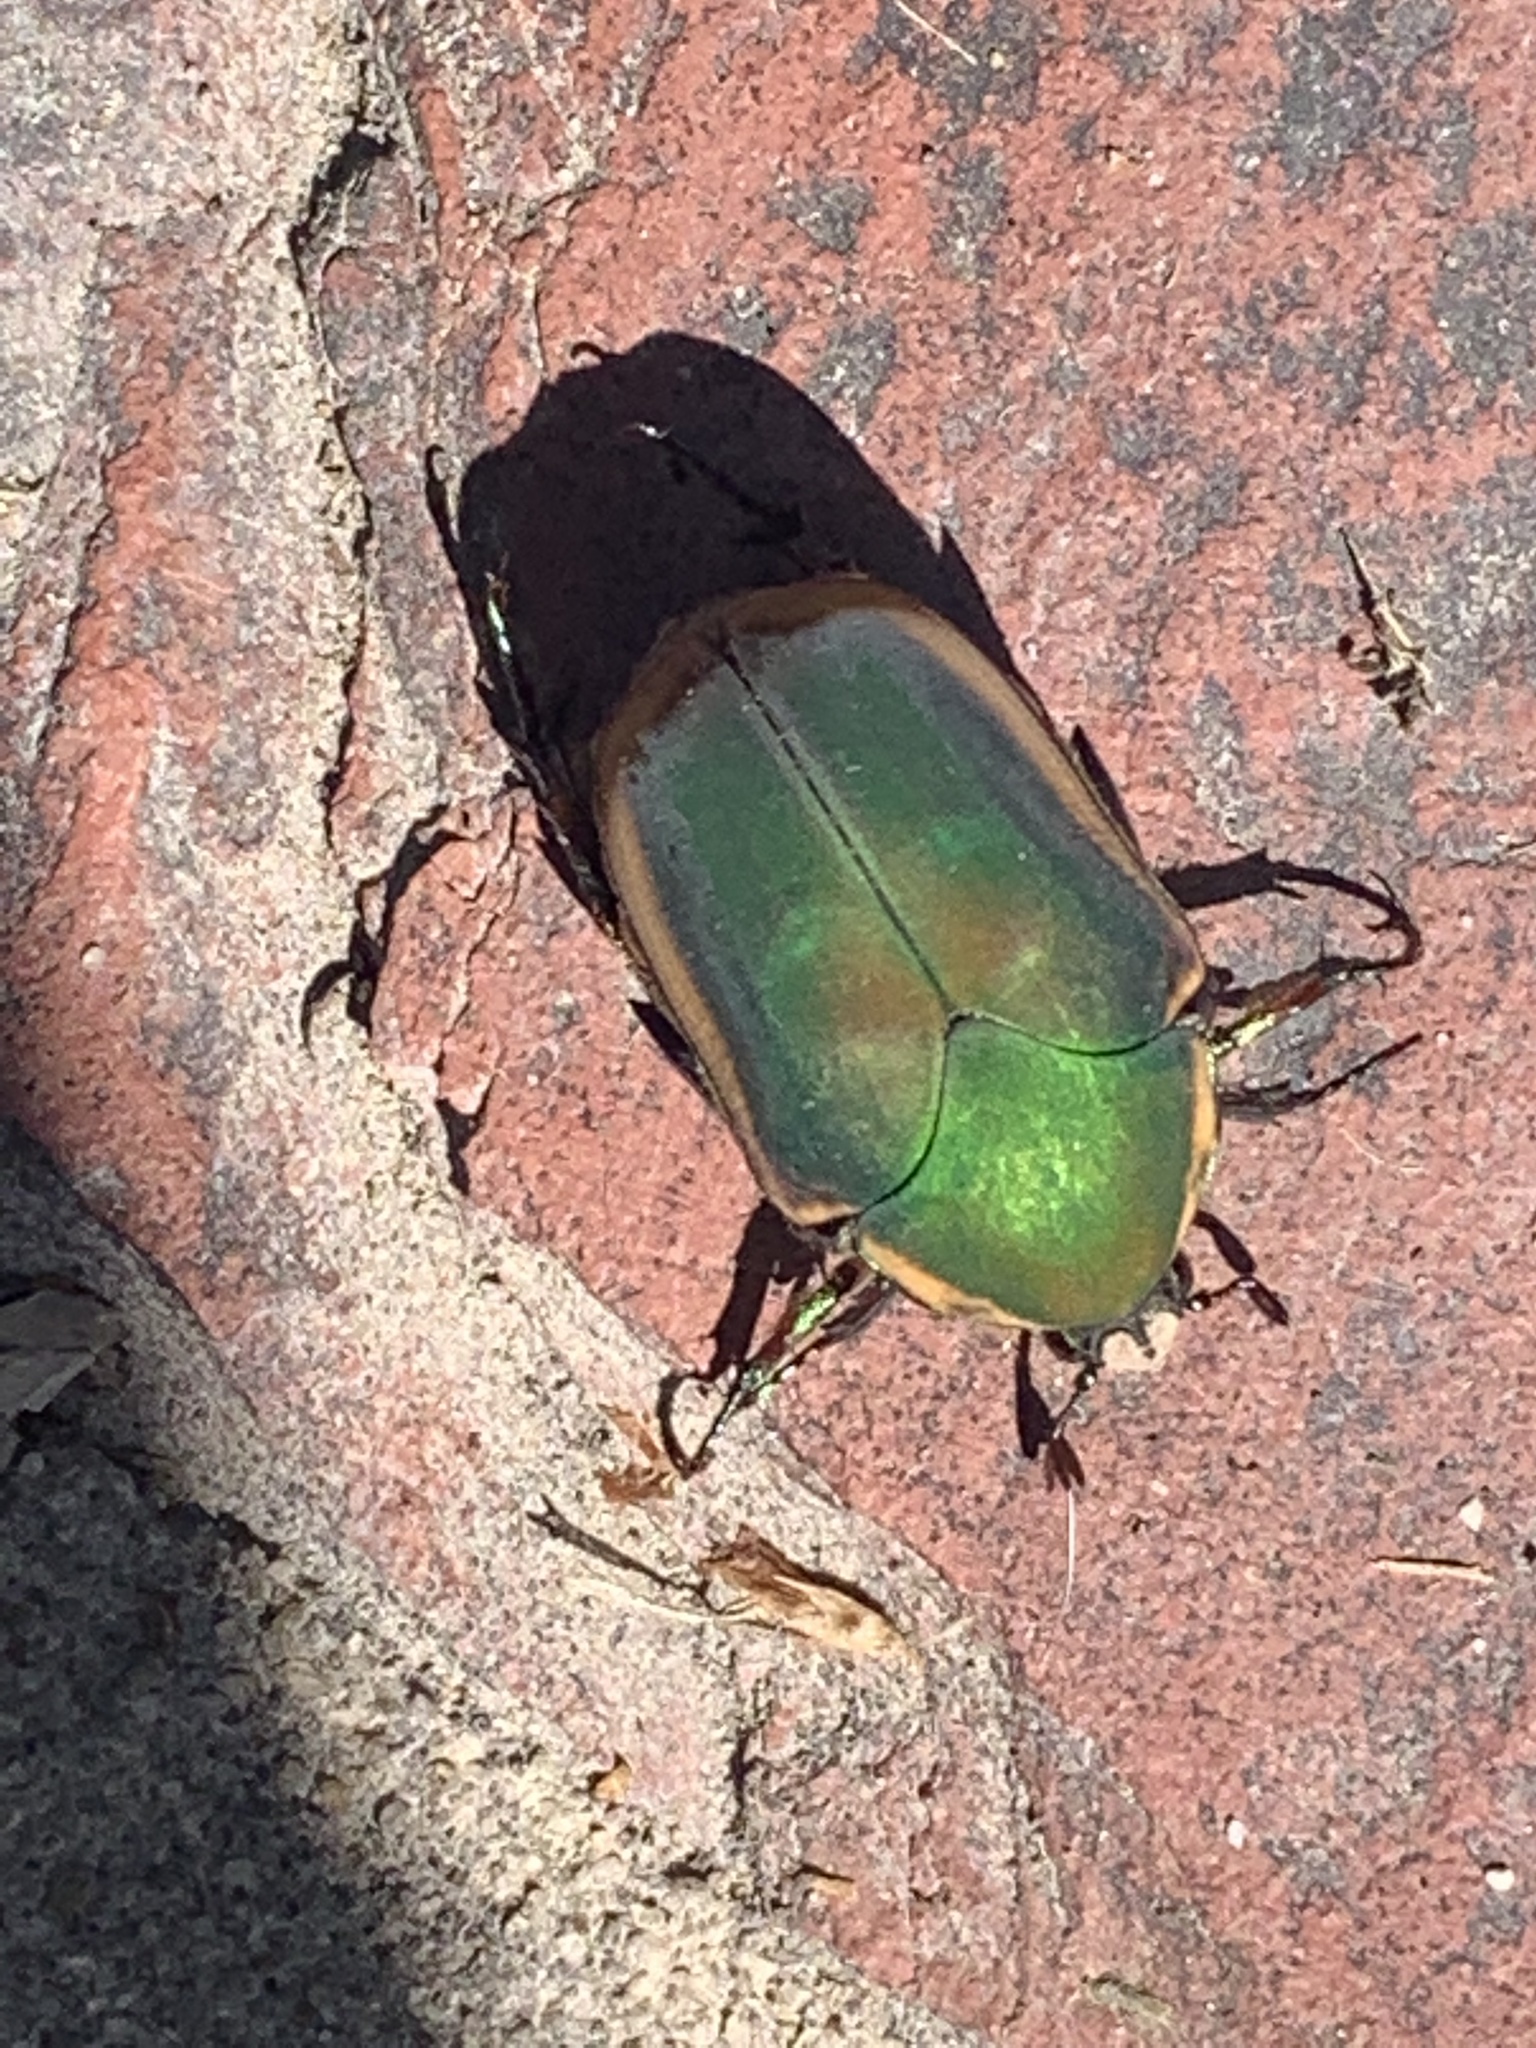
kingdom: Animalia
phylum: Arthropoda
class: Insecta
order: Coleoptera
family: Scarabaeidae
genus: Cotinis
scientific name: Cotinis nitida
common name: Common green june beetle
